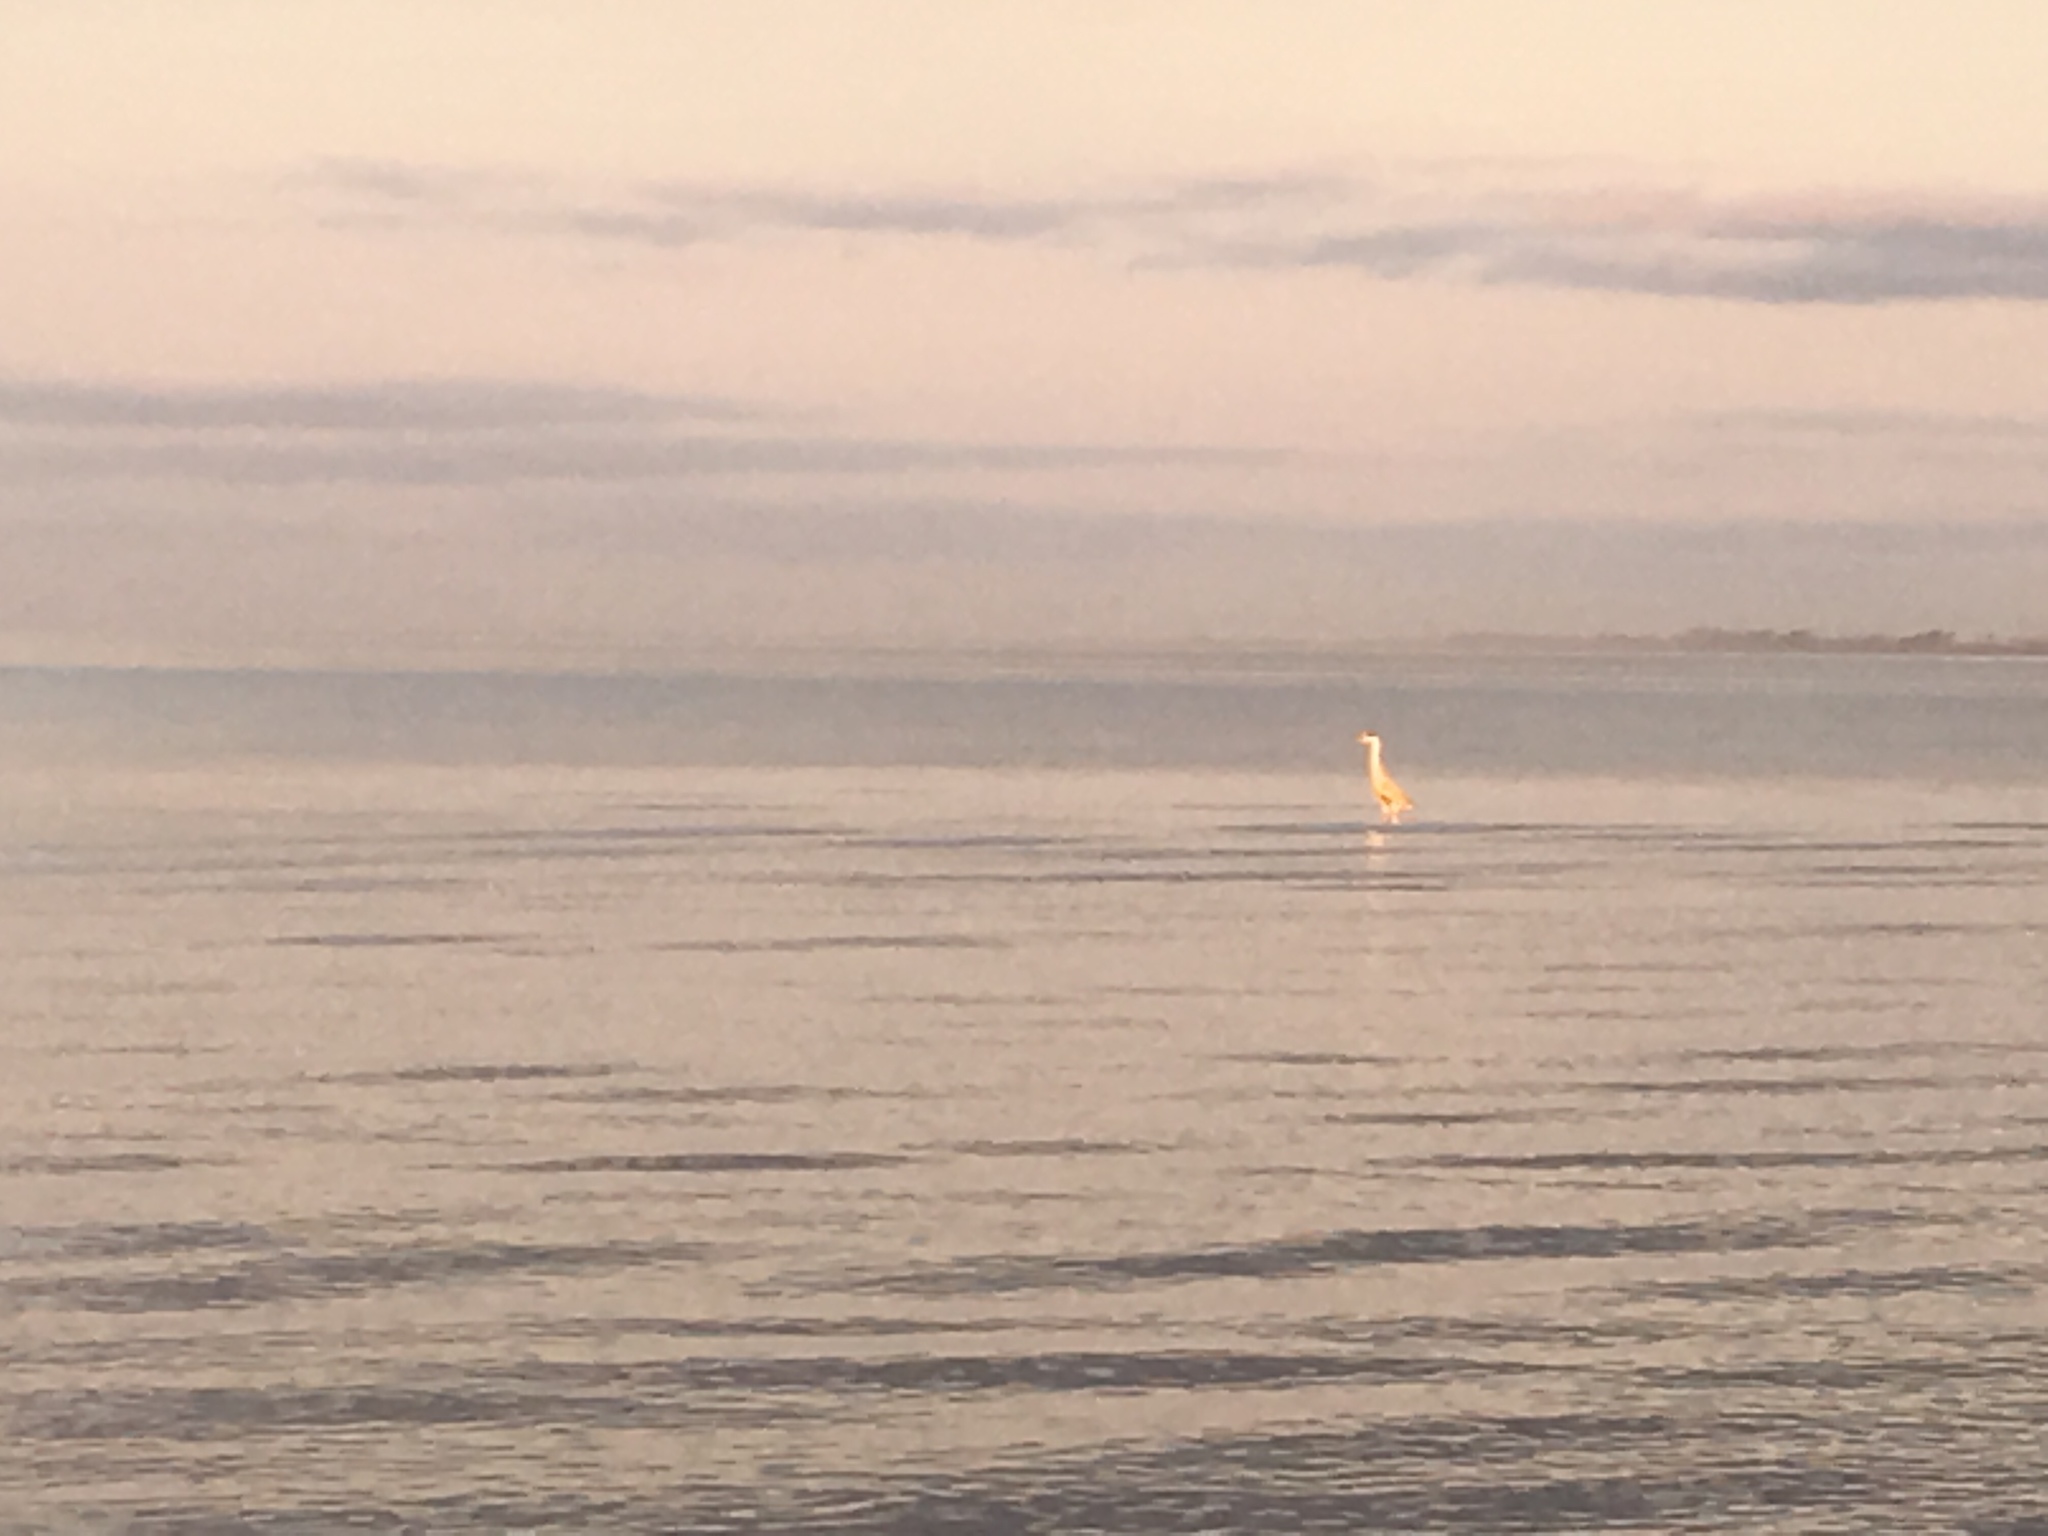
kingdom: Animalia
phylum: Chordata
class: Aves
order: Pelecaniformes
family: Ardeidae
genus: Ardea
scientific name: Ardea cocoi
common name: Cocoi heron
